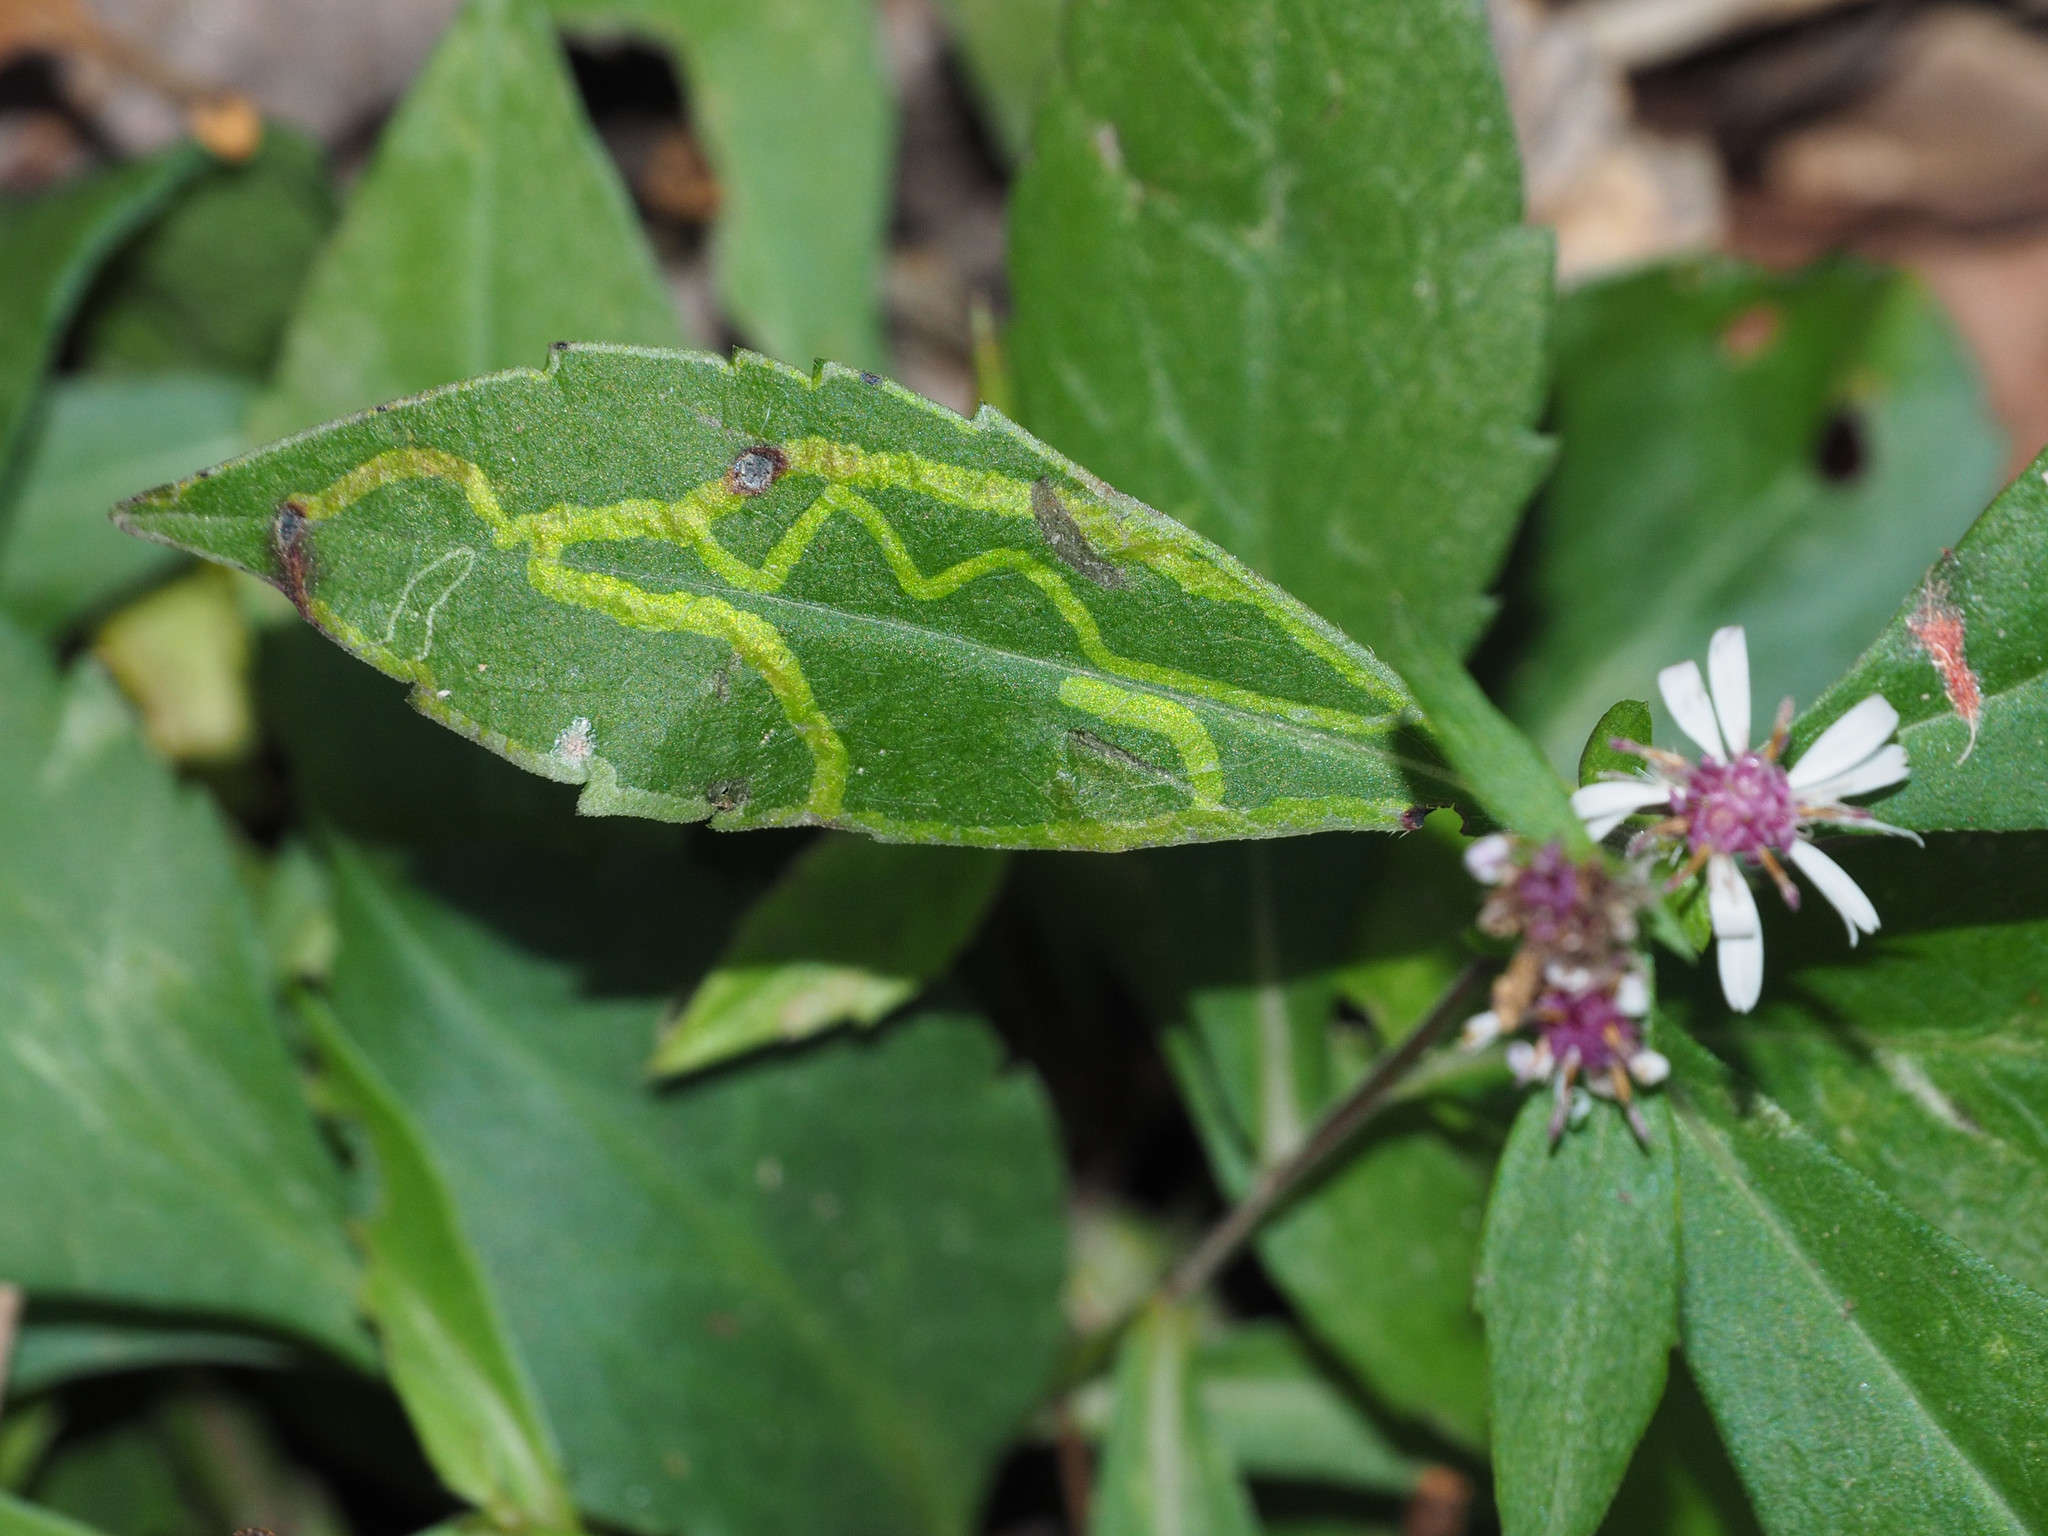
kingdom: Animalia
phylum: Arthropoda
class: Insecta
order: Diptera
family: Agromyzidae
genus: Ophiomyia
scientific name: Ophiomyia parda
